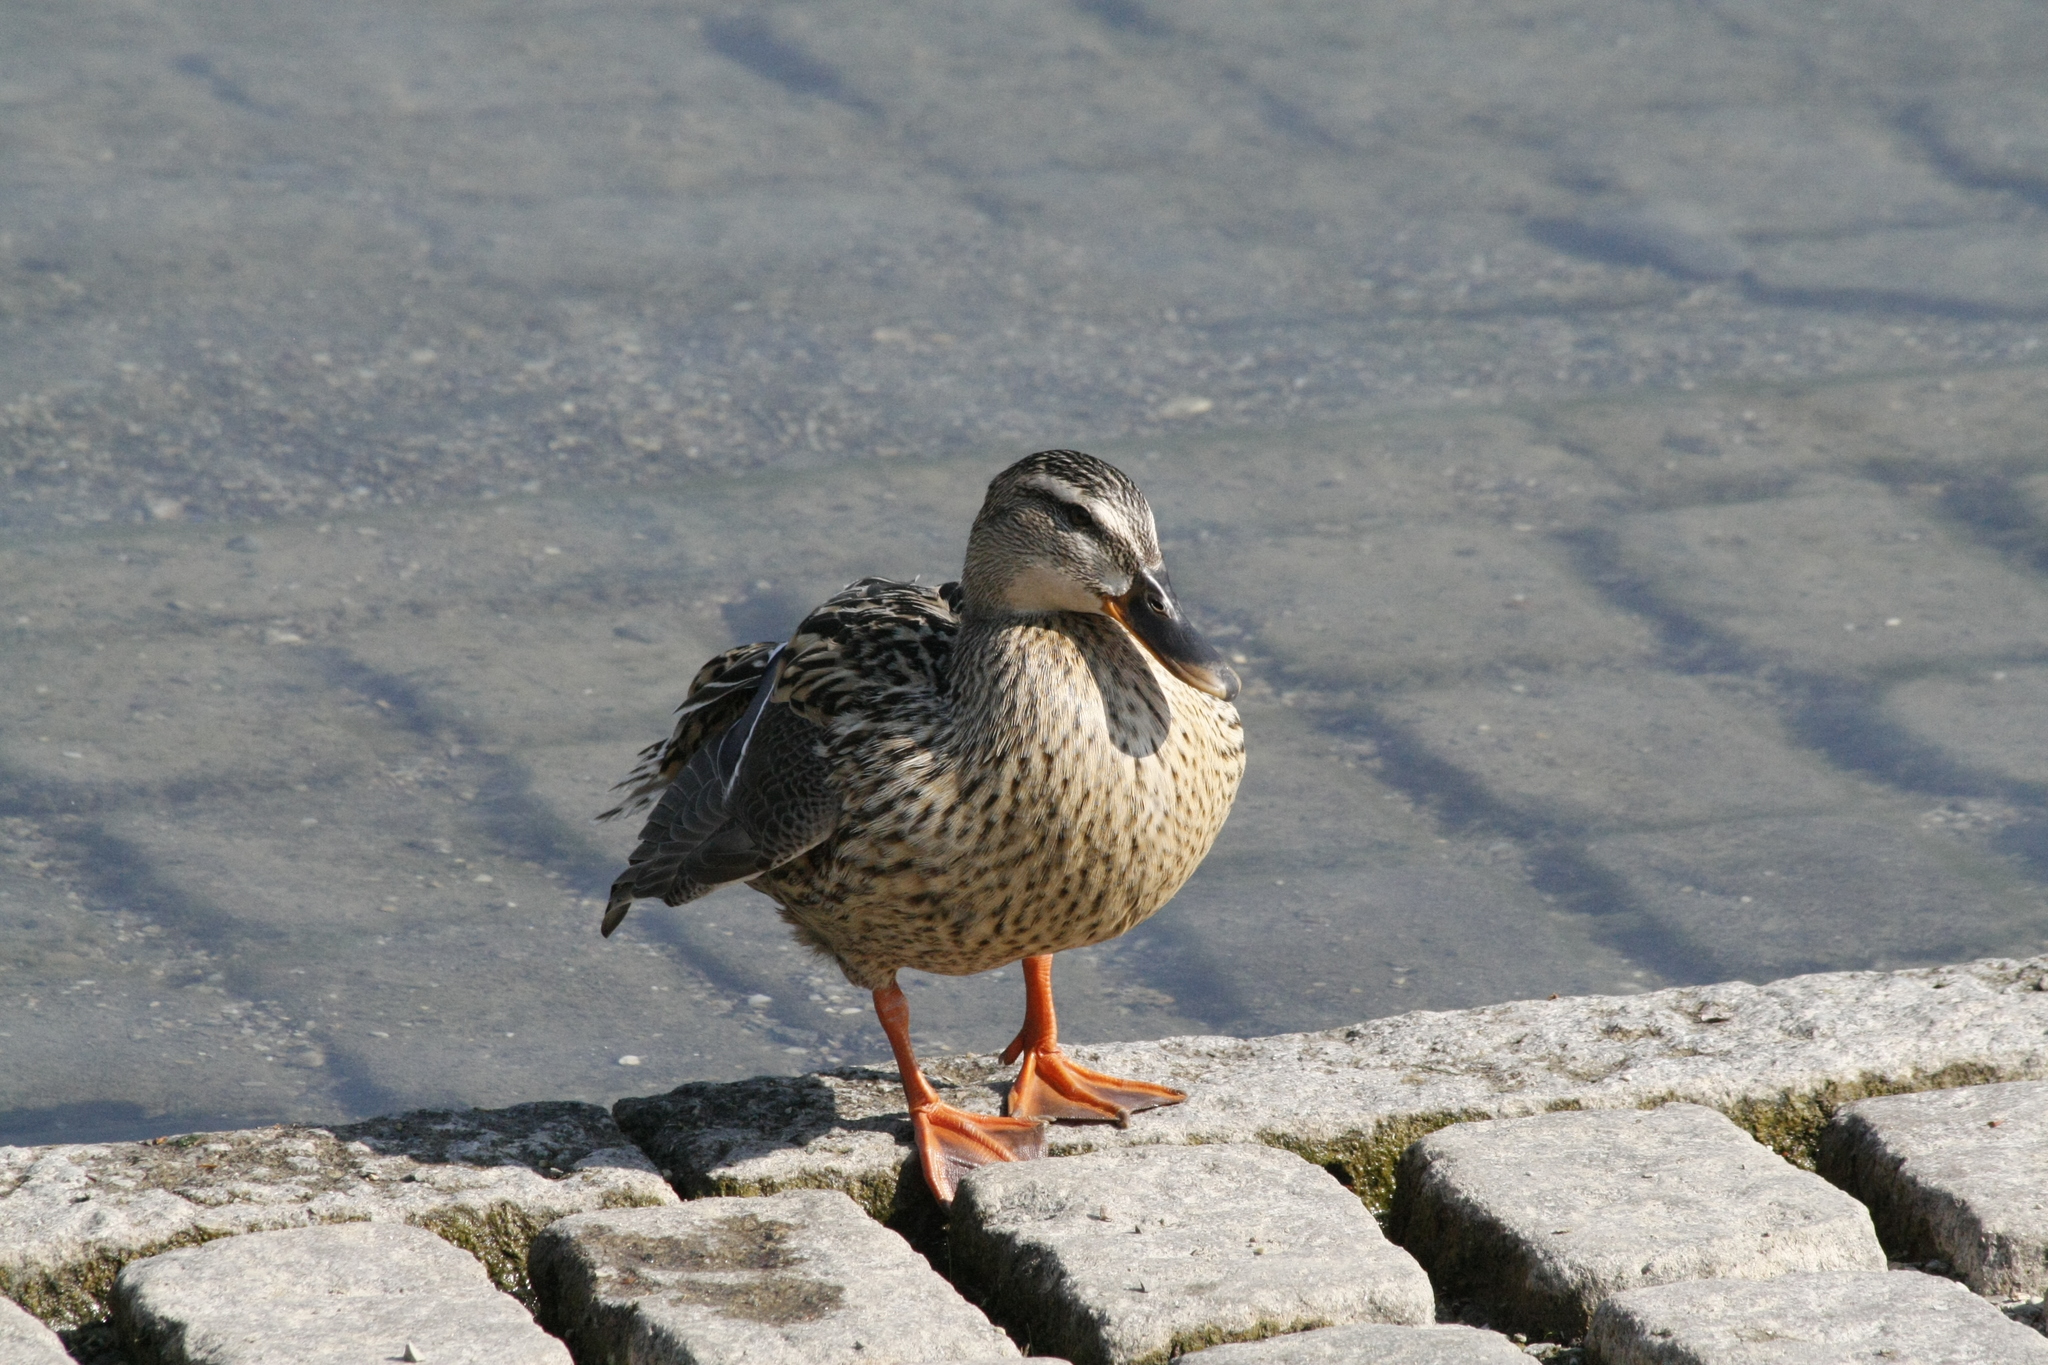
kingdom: Animalia
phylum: Chordata
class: Aves
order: Anseriformes
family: Anatidae
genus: Anas
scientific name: Anas platyrhynchos
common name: Mallard
